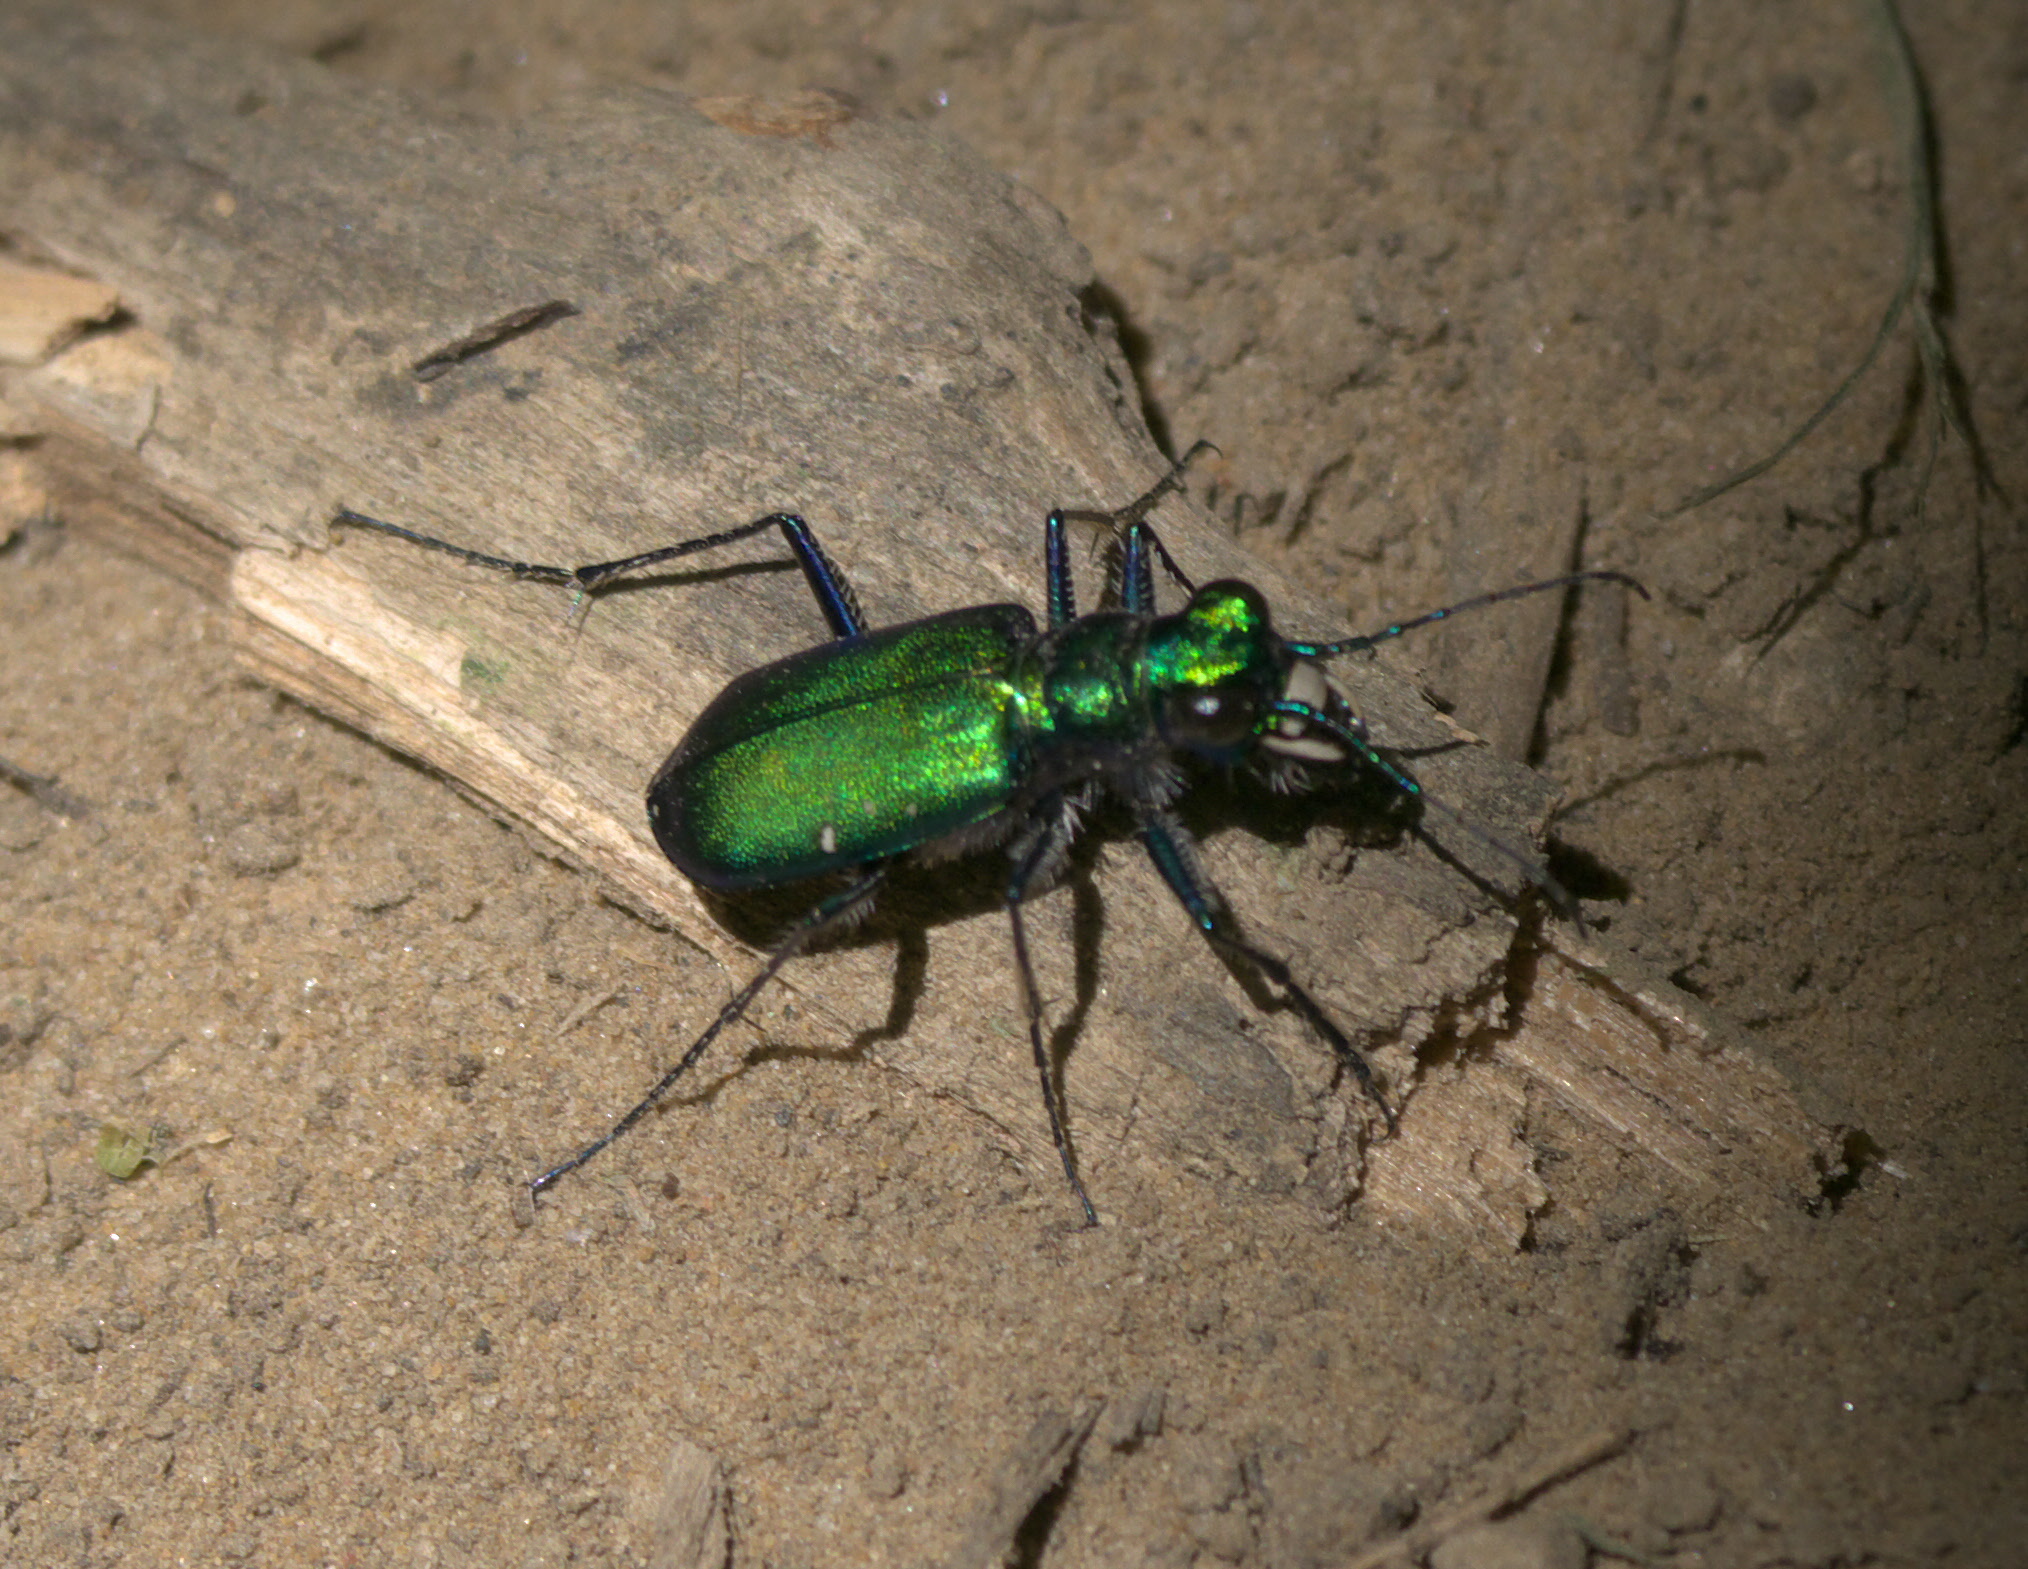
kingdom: Animalia
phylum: Arthropoda
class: Insecta
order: Coleoptera
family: Carabidae
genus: Cicindela
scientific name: Cicindela sexguttata
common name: Six-spotted tiger beetle
